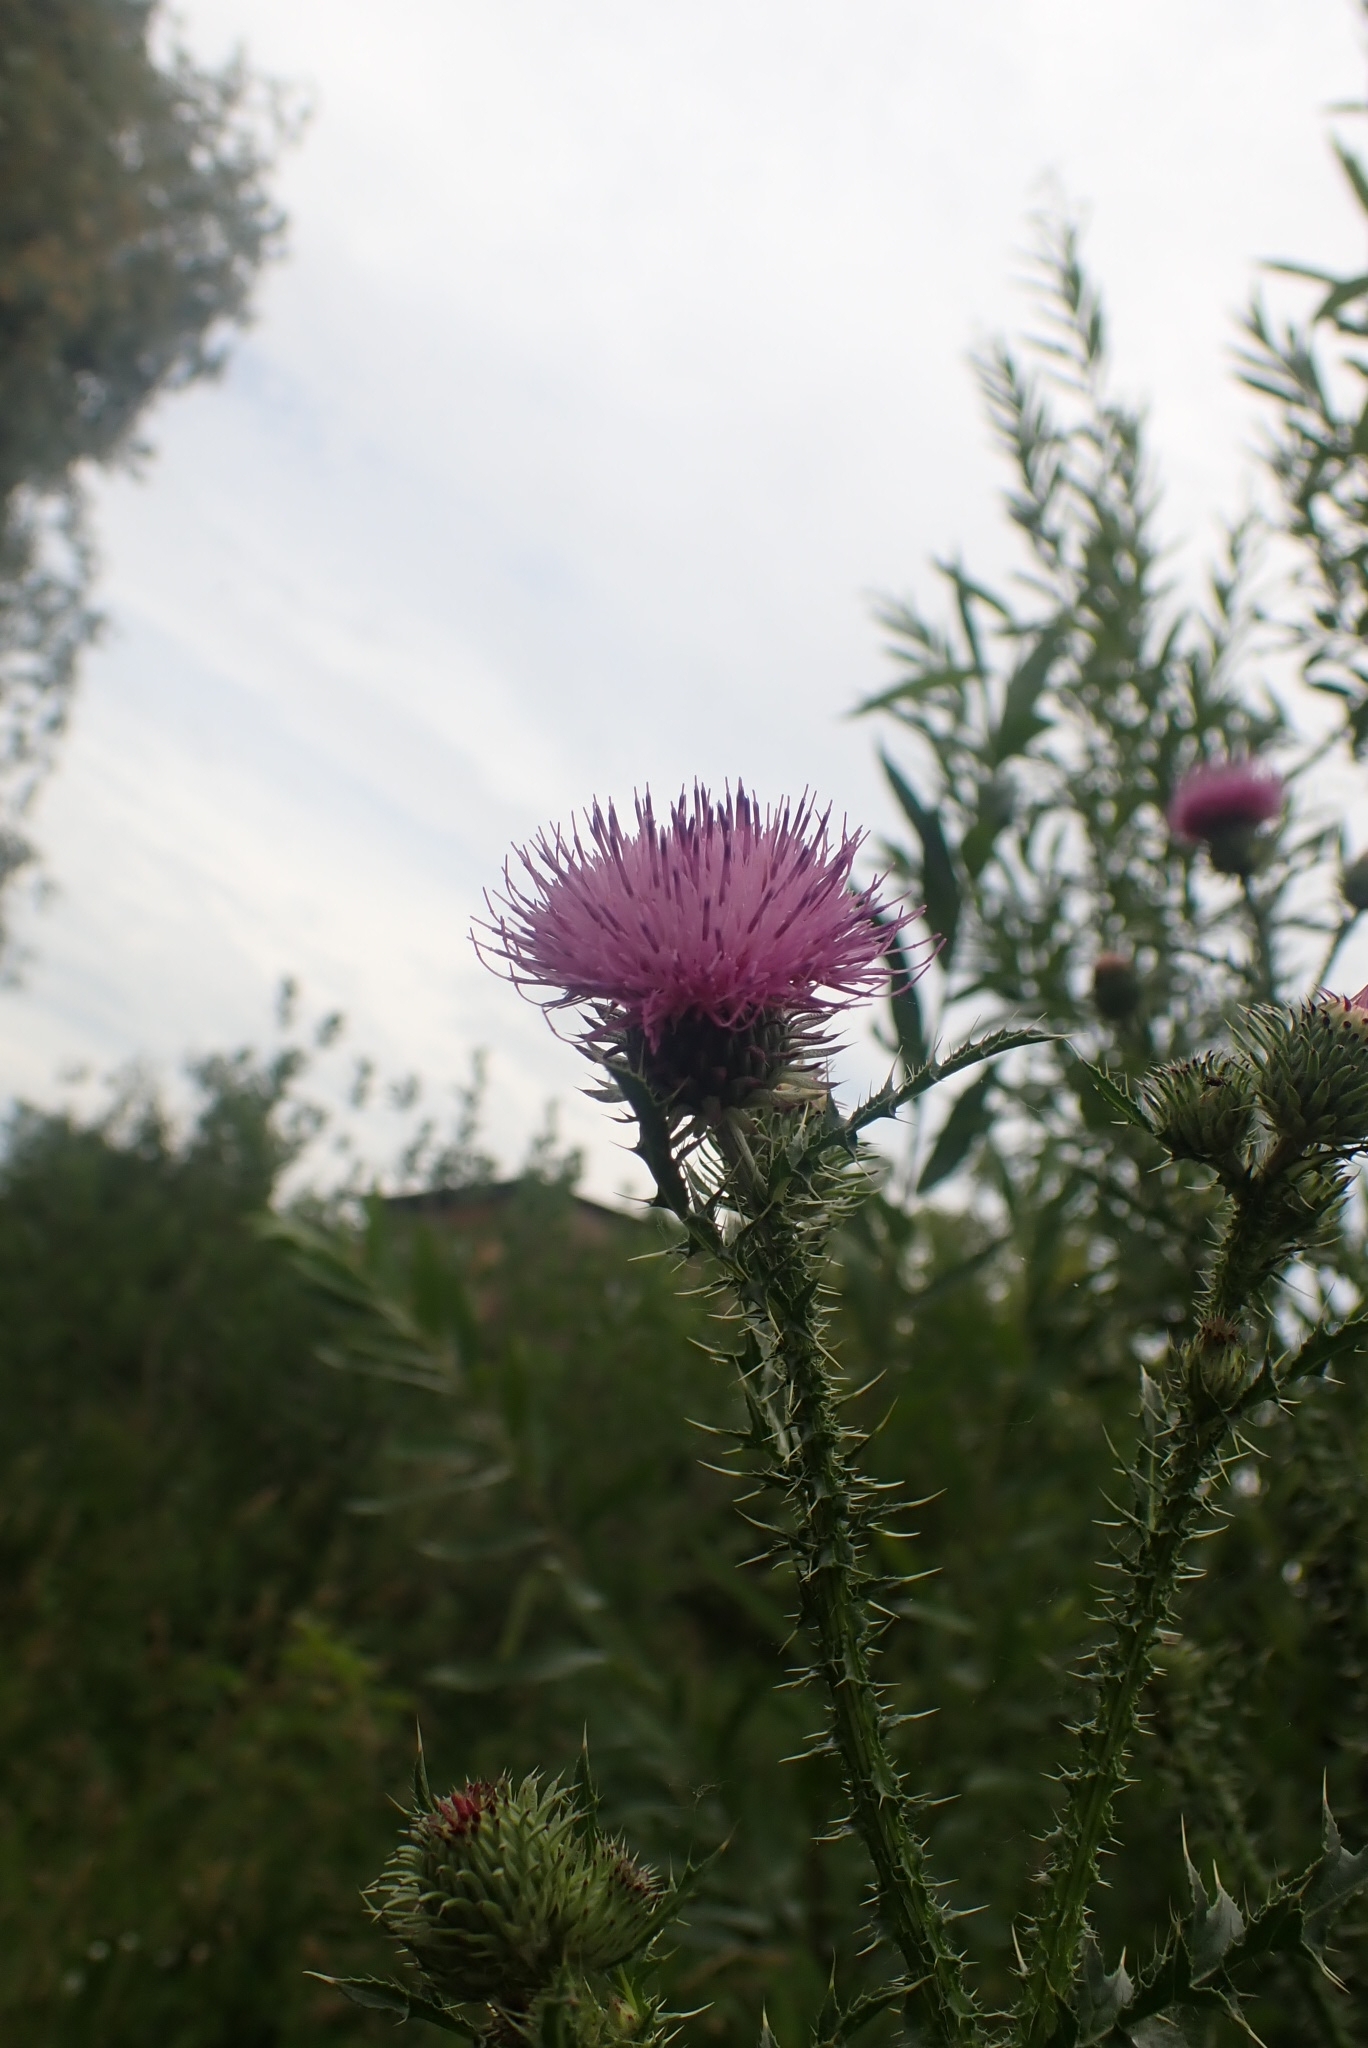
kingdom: Plantae
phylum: Tracheophyta
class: Magnoliopsida
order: Asterales
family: Asteraceae
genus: Carduus
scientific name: Carduus acanthoides
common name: Plumeless thistle
